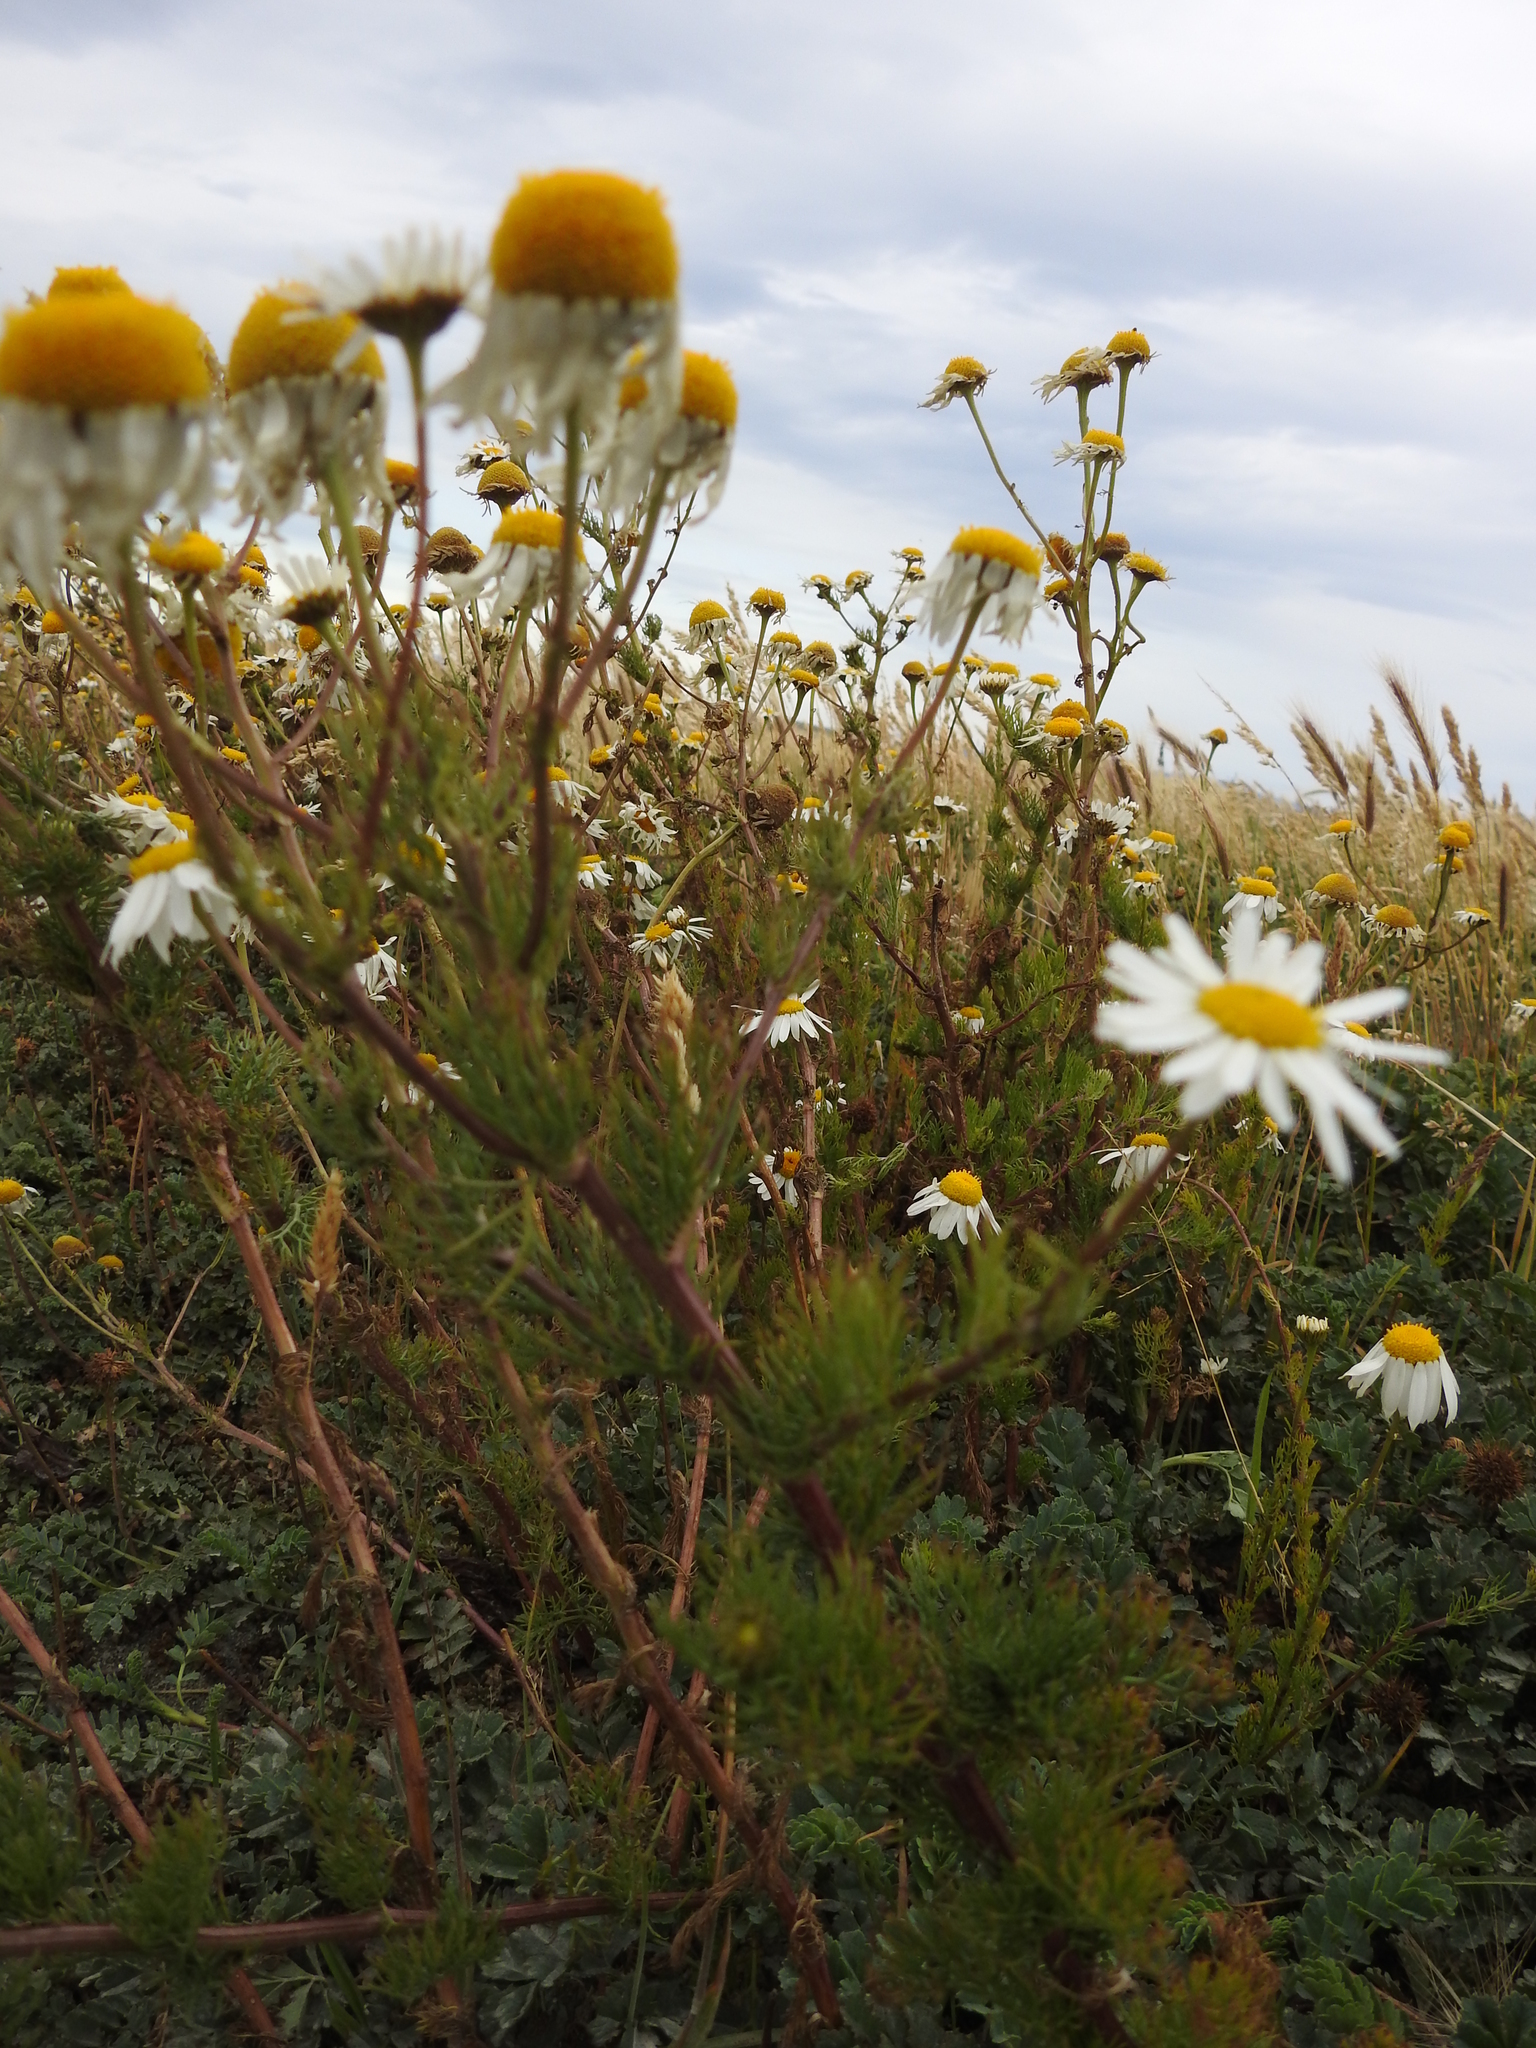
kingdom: Plantae
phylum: Tracheophyta
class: Magnoliopsida
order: Asterales
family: Asteraceae
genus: Tripleurospermum
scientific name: Tripleurospermum inodorum
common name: Scentless mayweed
